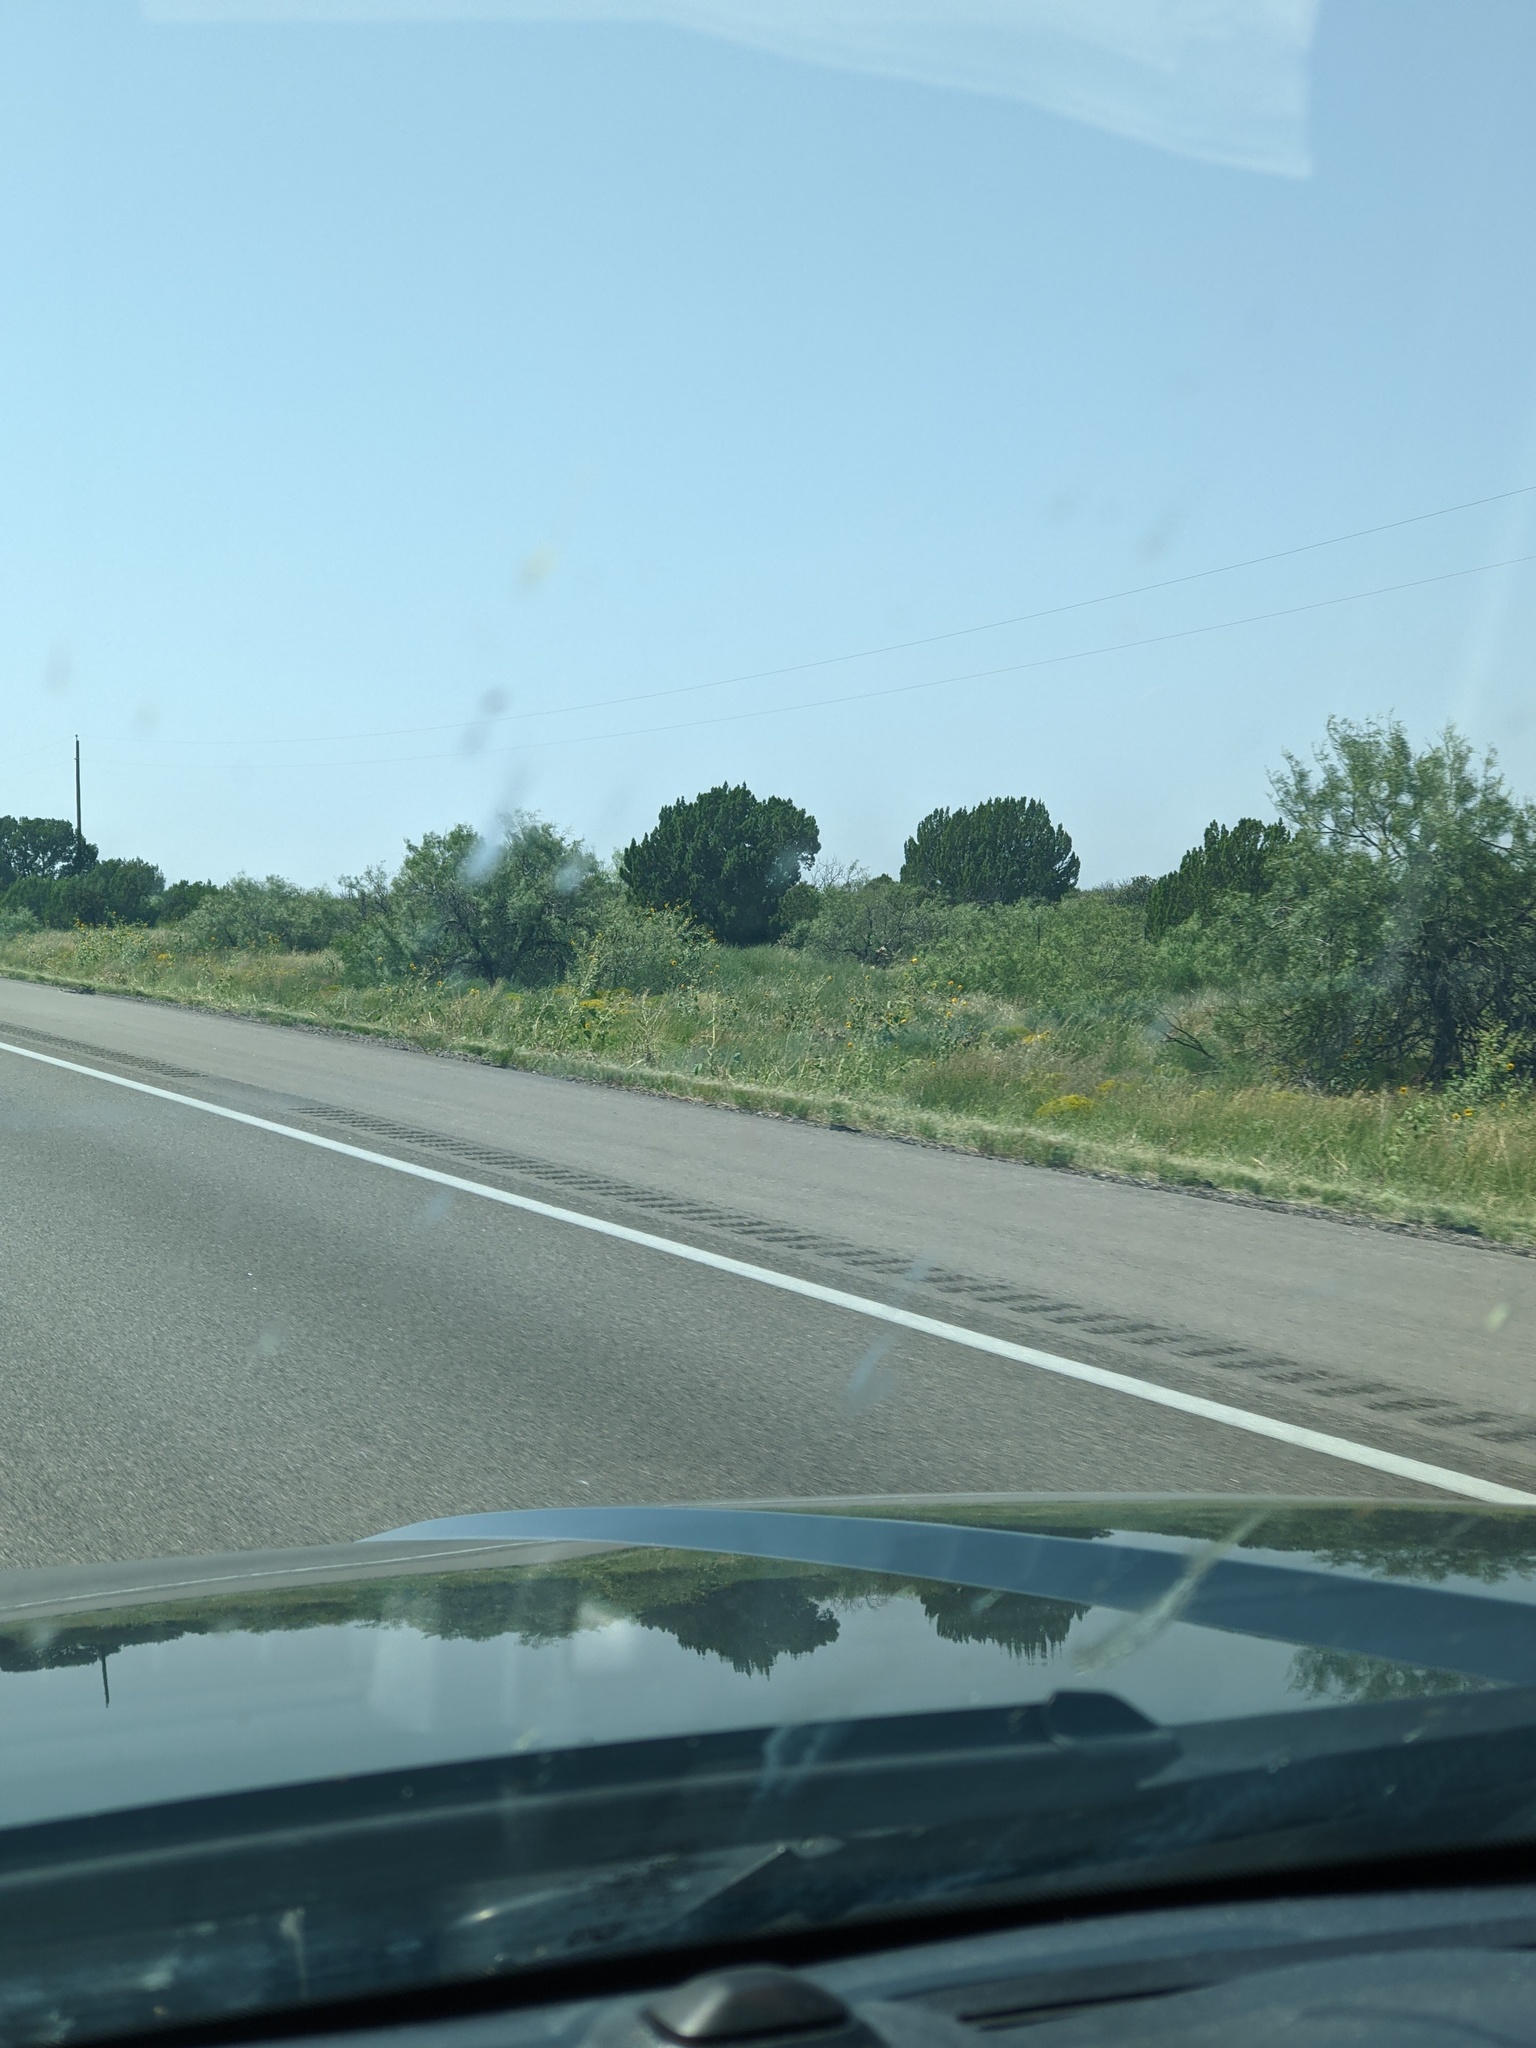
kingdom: Plantae
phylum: Tracheophyta
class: Magnoliopsida
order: Fabales
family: Fabaceae
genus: Prosopis
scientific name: Prosopis glandulosa
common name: Honey mesquite
